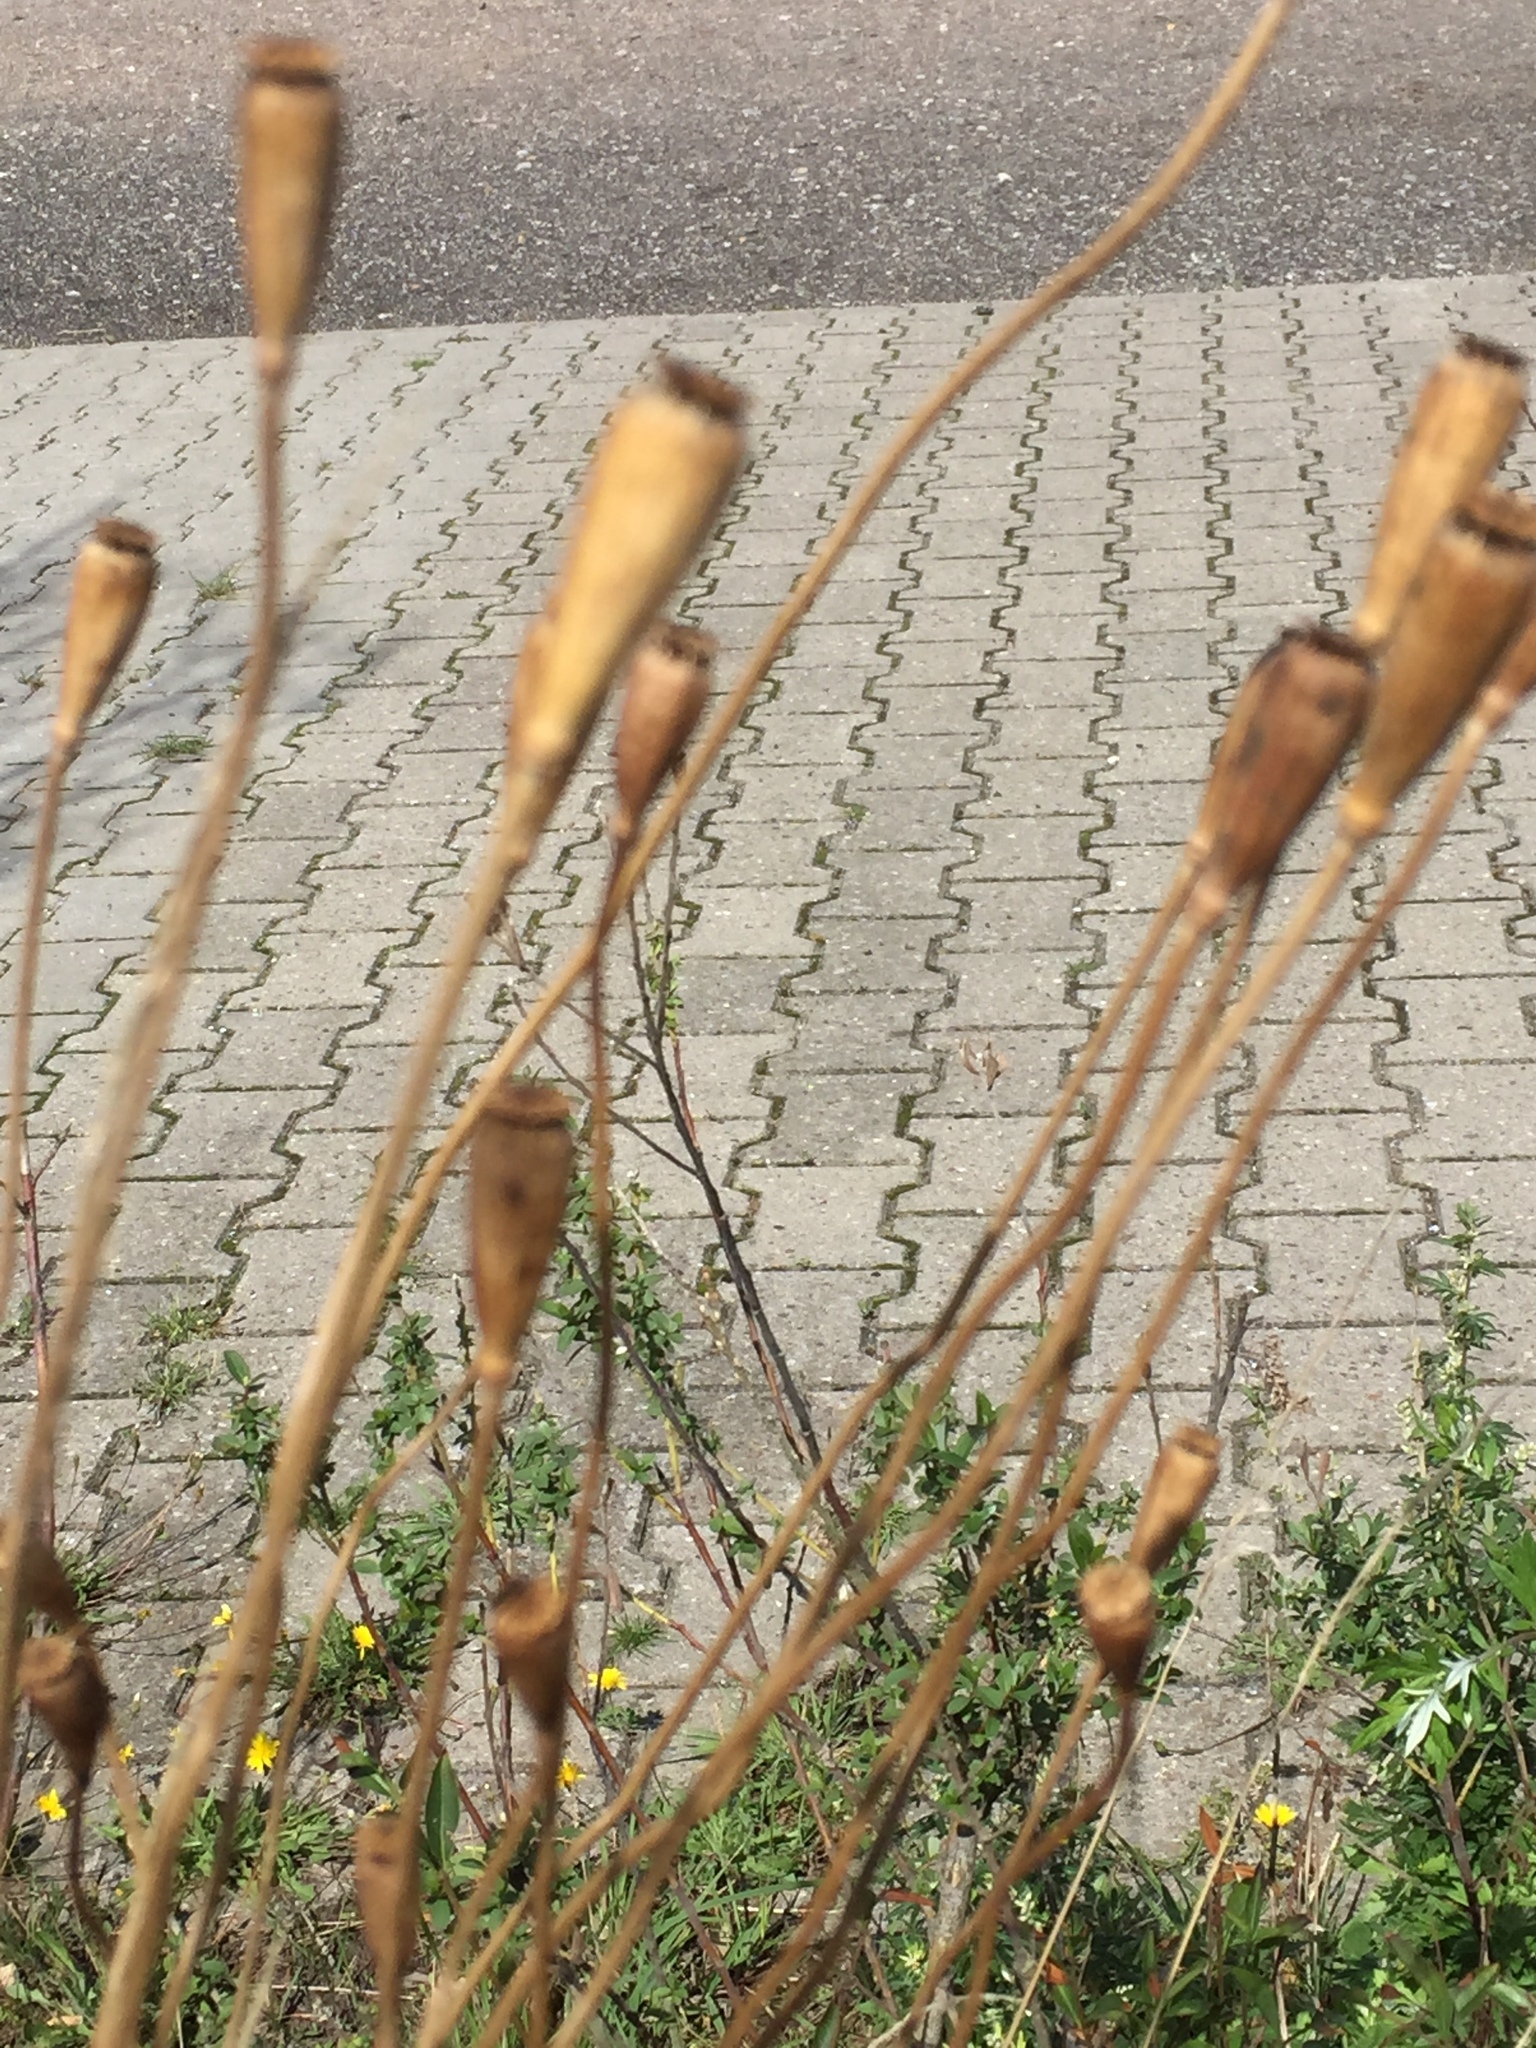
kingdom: Plantae
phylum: Tracheophyta
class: Magnoliopsida
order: Ranunculales
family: Papaveraceae
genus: Papaver
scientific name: Papaver dubium
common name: Long-headed poppy
